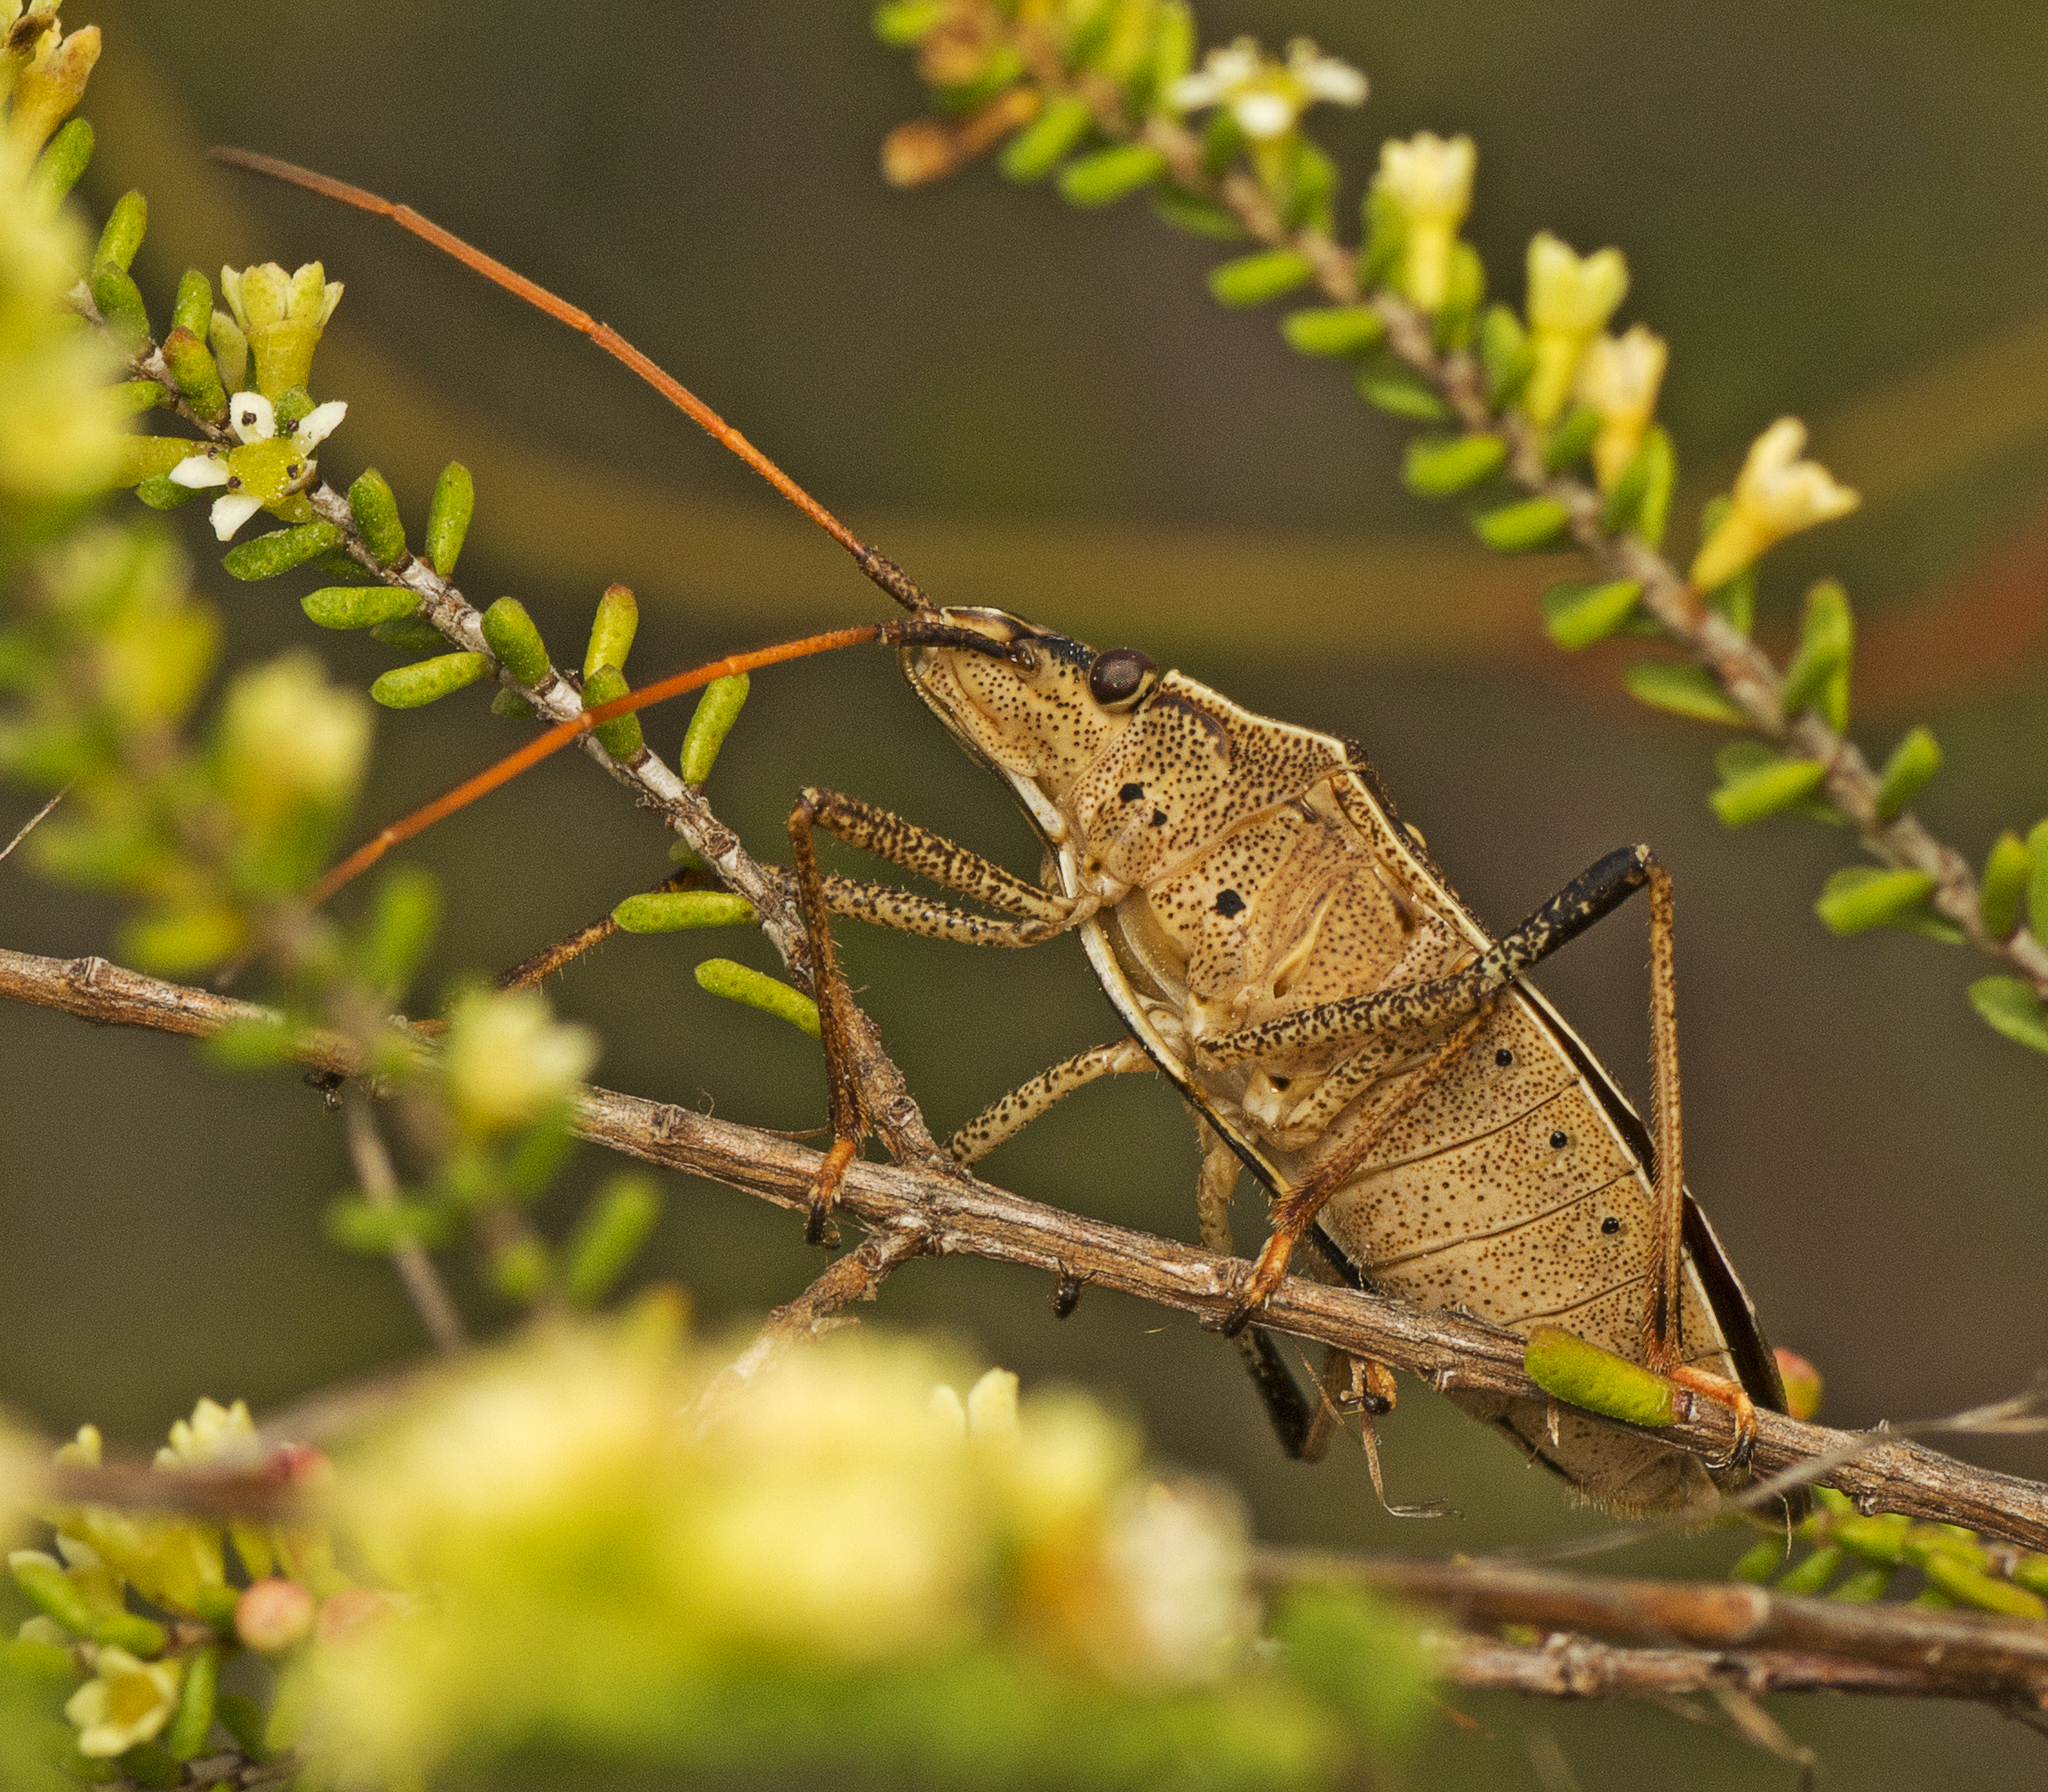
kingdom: Animalia
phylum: Arthropoda
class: Insecta
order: Hemiptera
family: Pentatomidae
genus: Poecilometis
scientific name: Poecilometis
